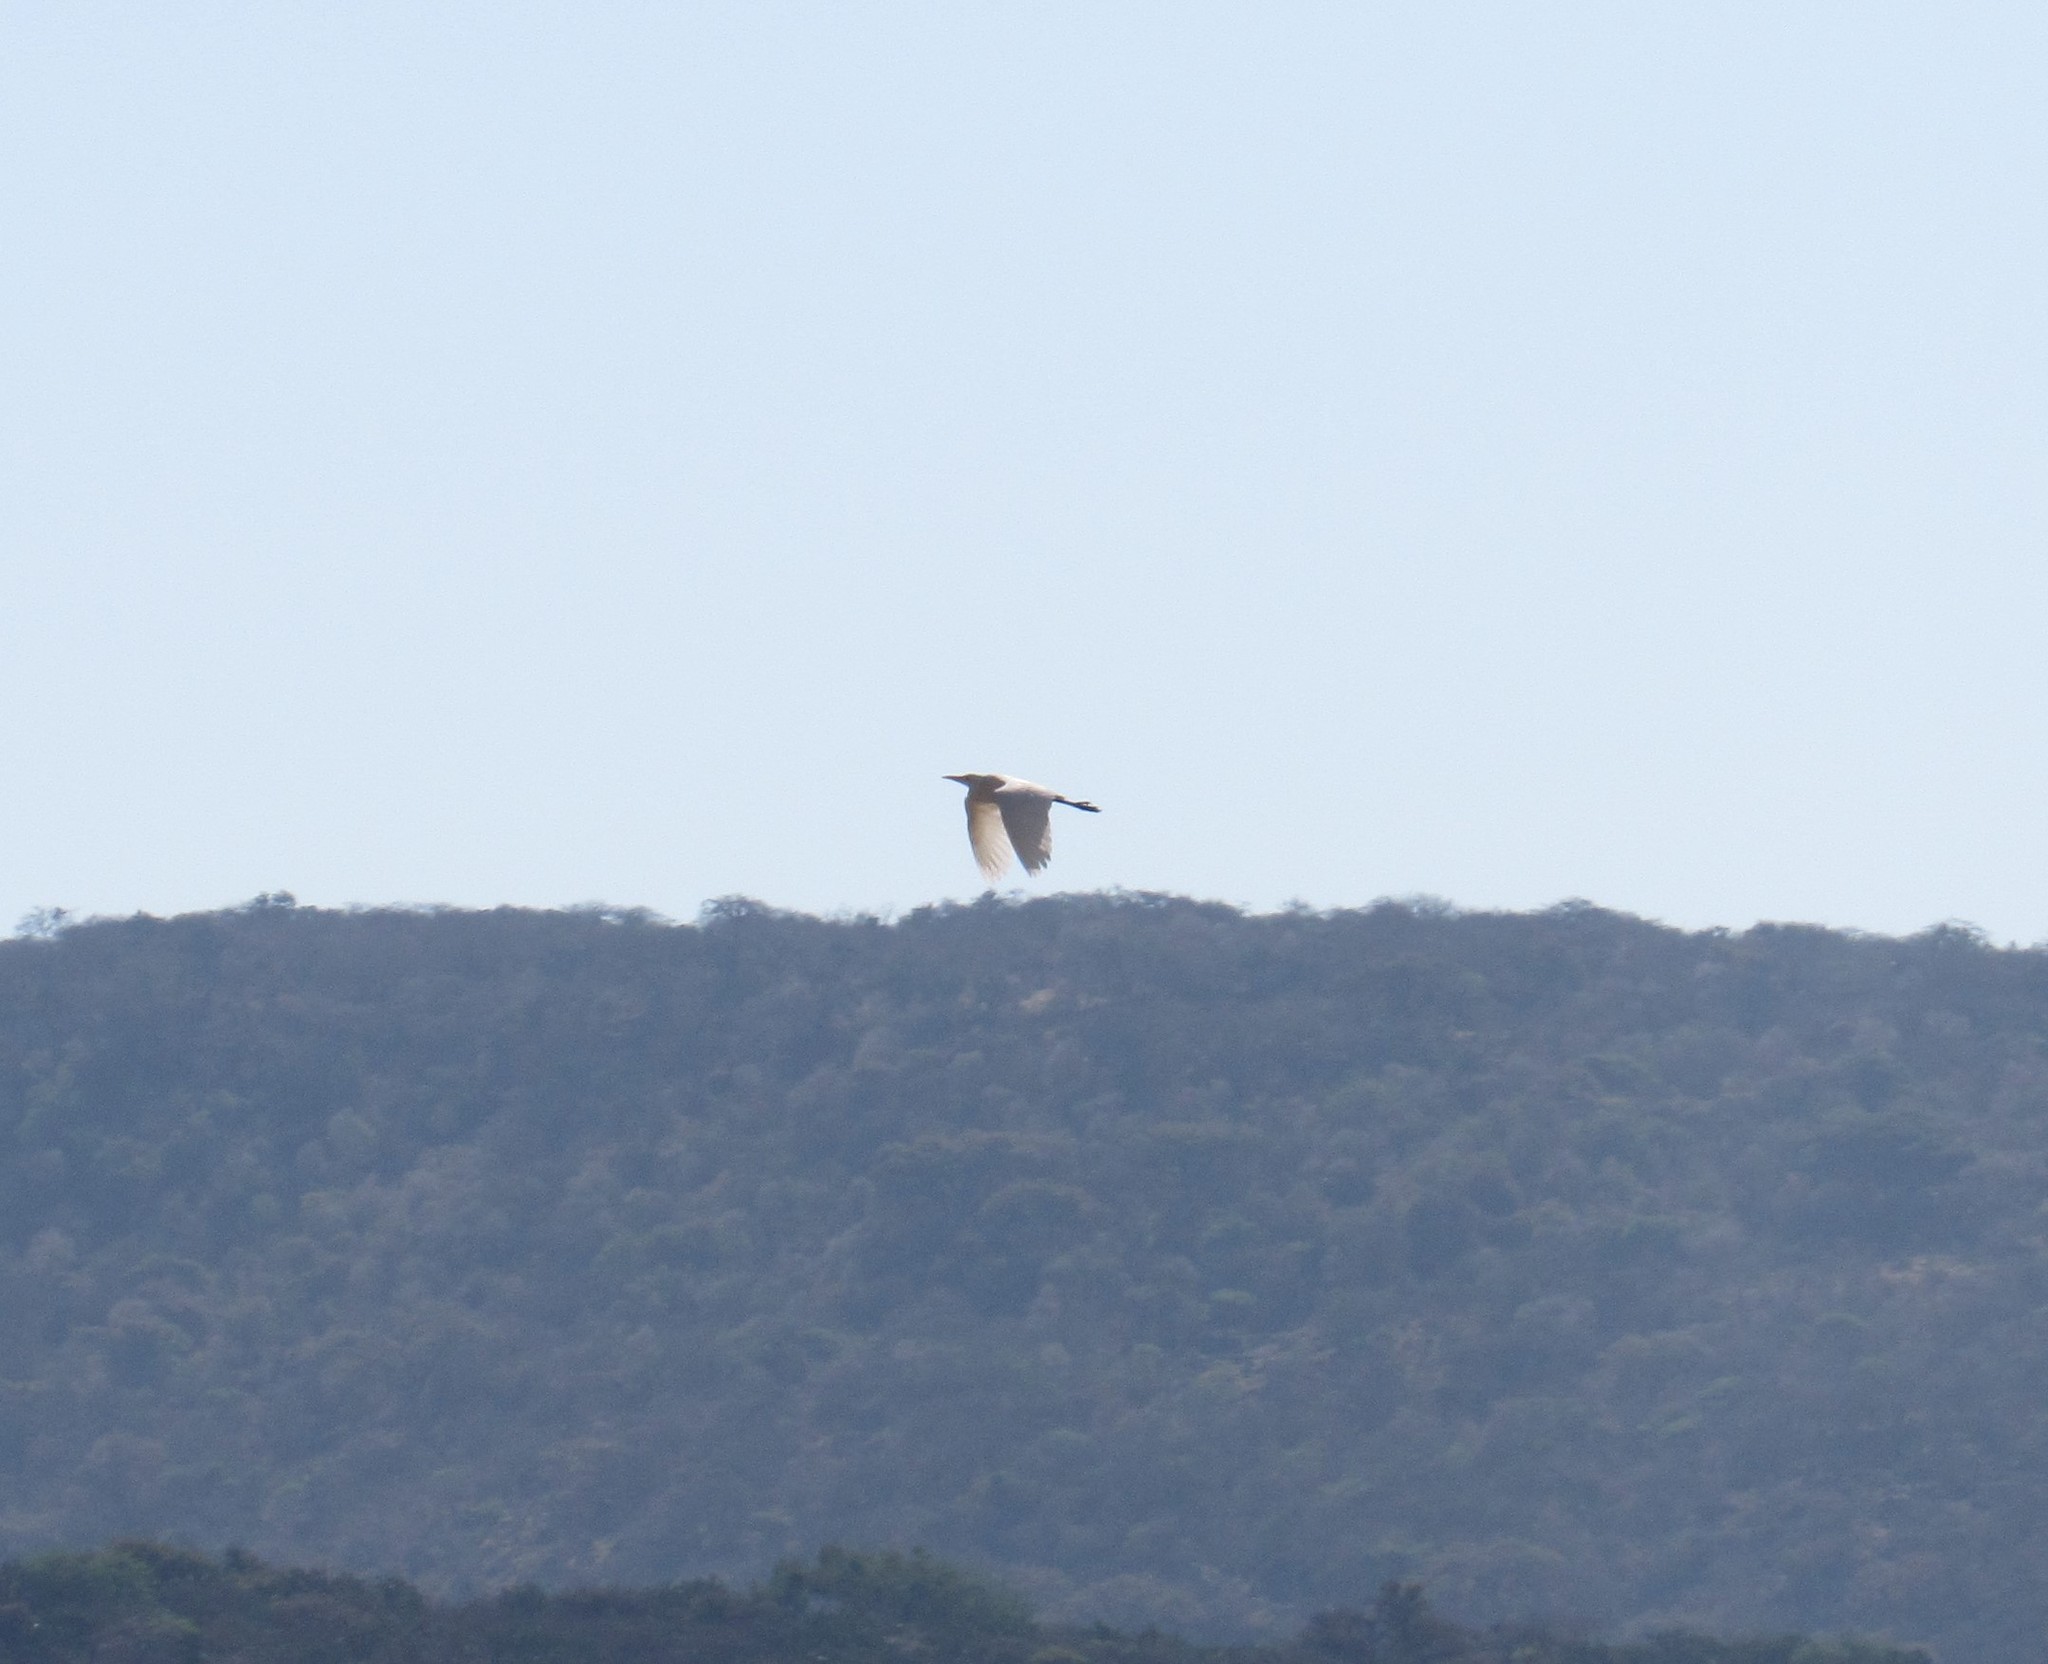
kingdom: Animalia
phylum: Chordata
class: Aves
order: Pelecaniformes
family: Ardeidae
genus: Bubulcus
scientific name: Bubulcus ibis
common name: Cattle egret
